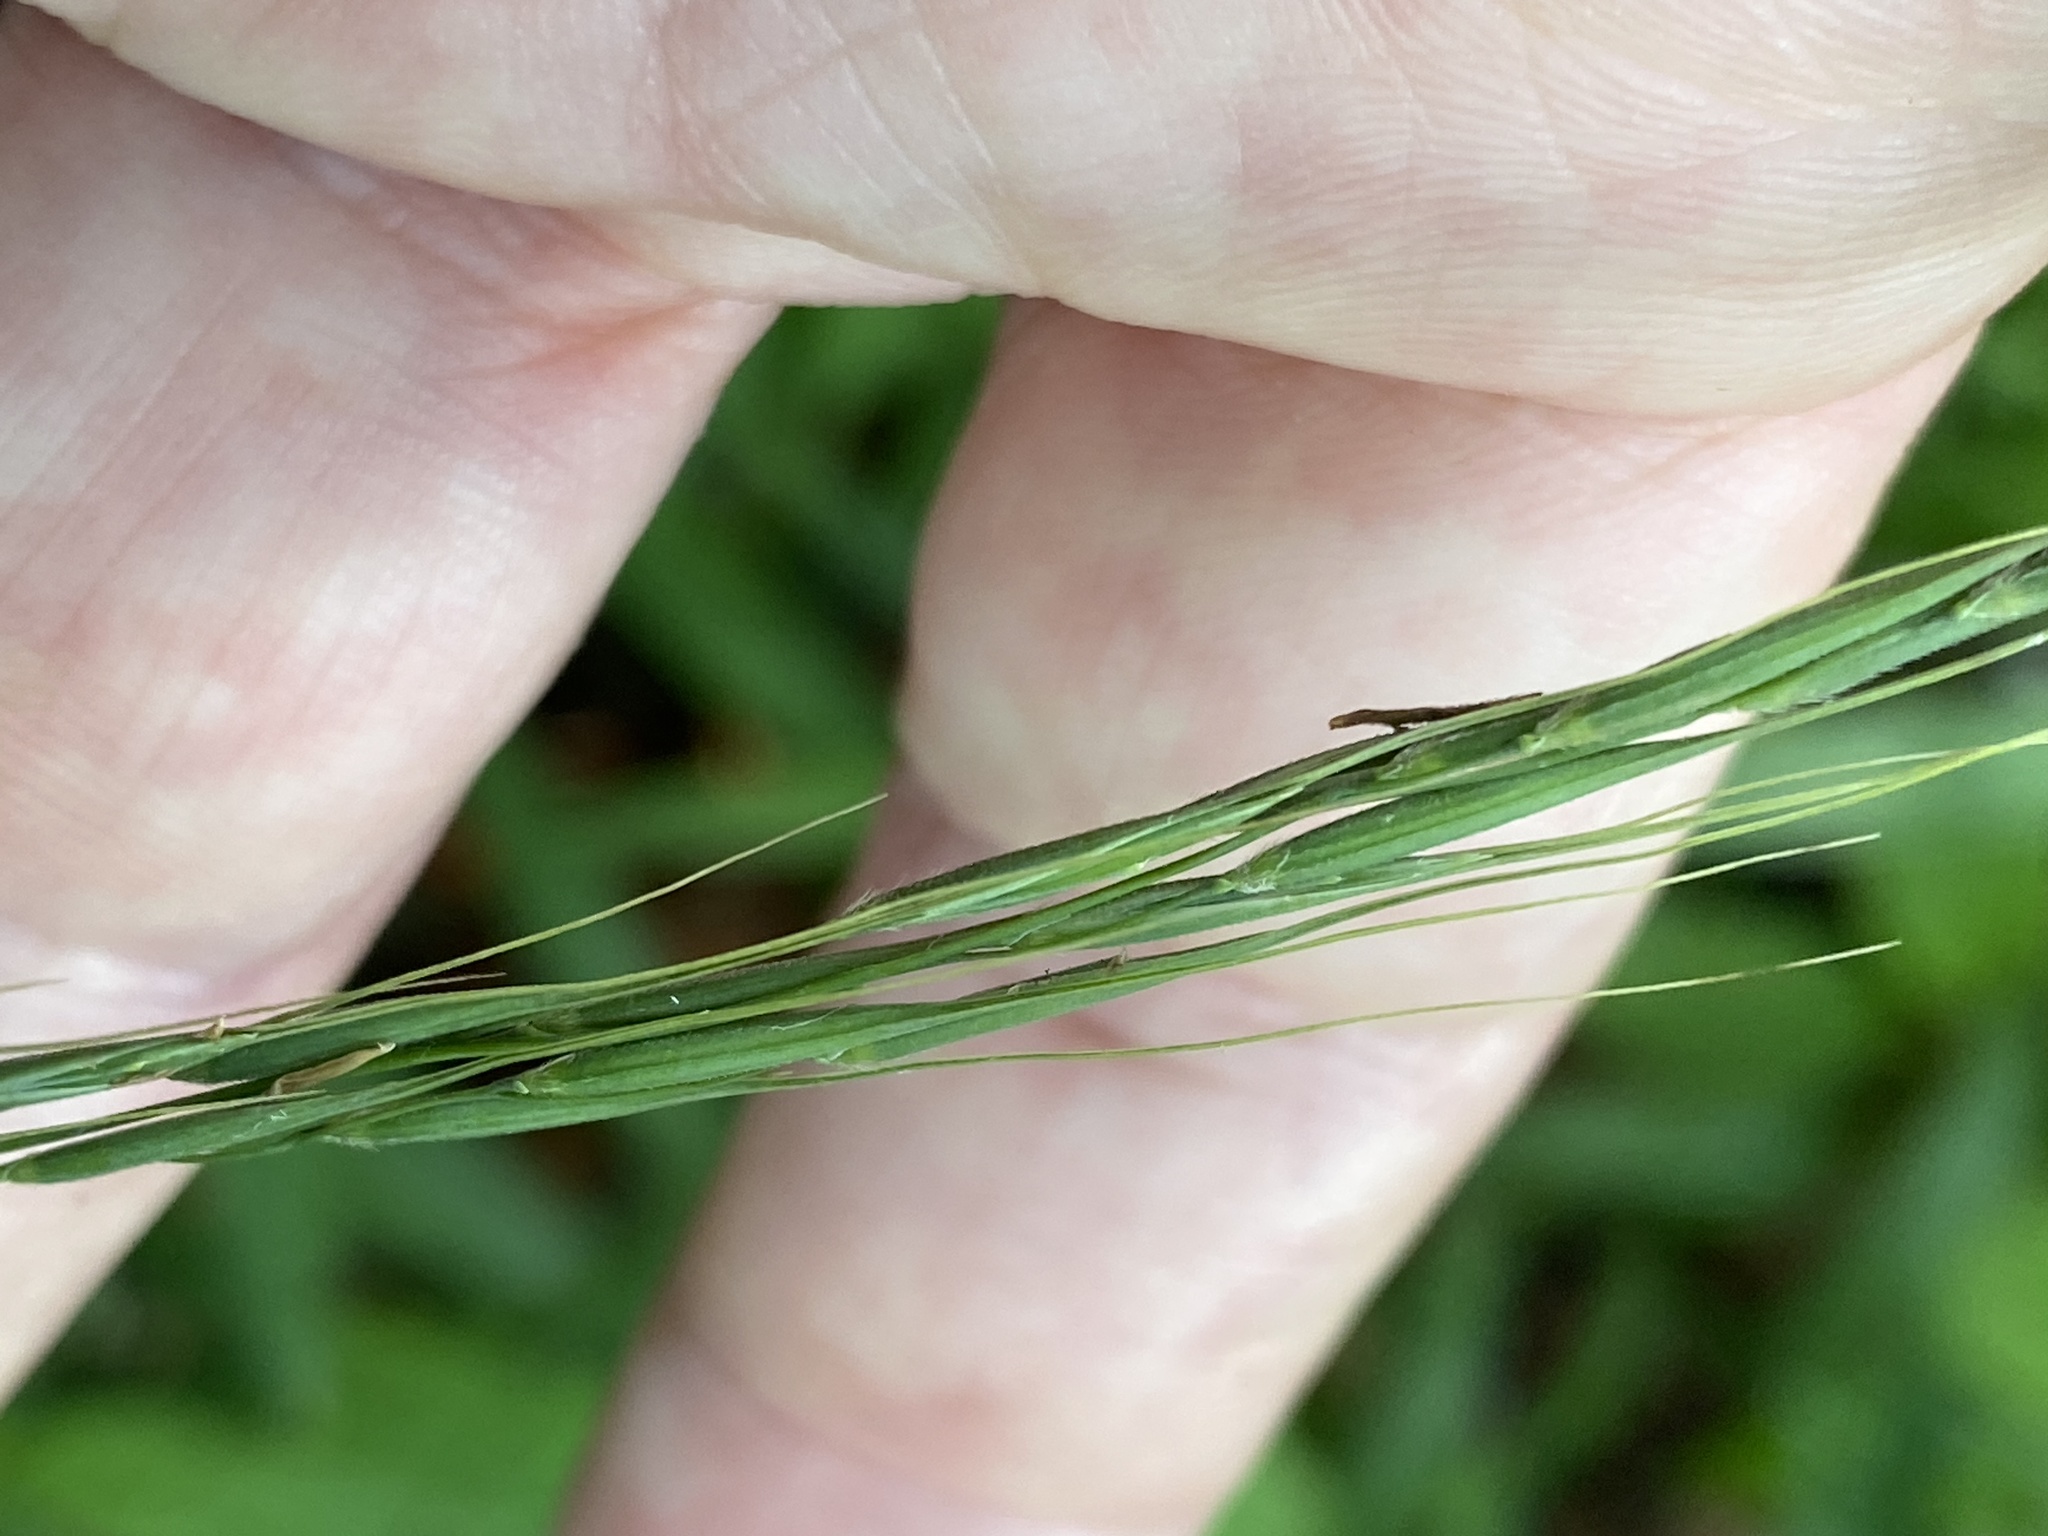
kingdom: Plantae
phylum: Tracheophyta
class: Liliopsida
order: Poales
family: Poaceae
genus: Brachyelytrum
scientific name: Brachyelytrum erectum
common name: Bearded shorthusk
